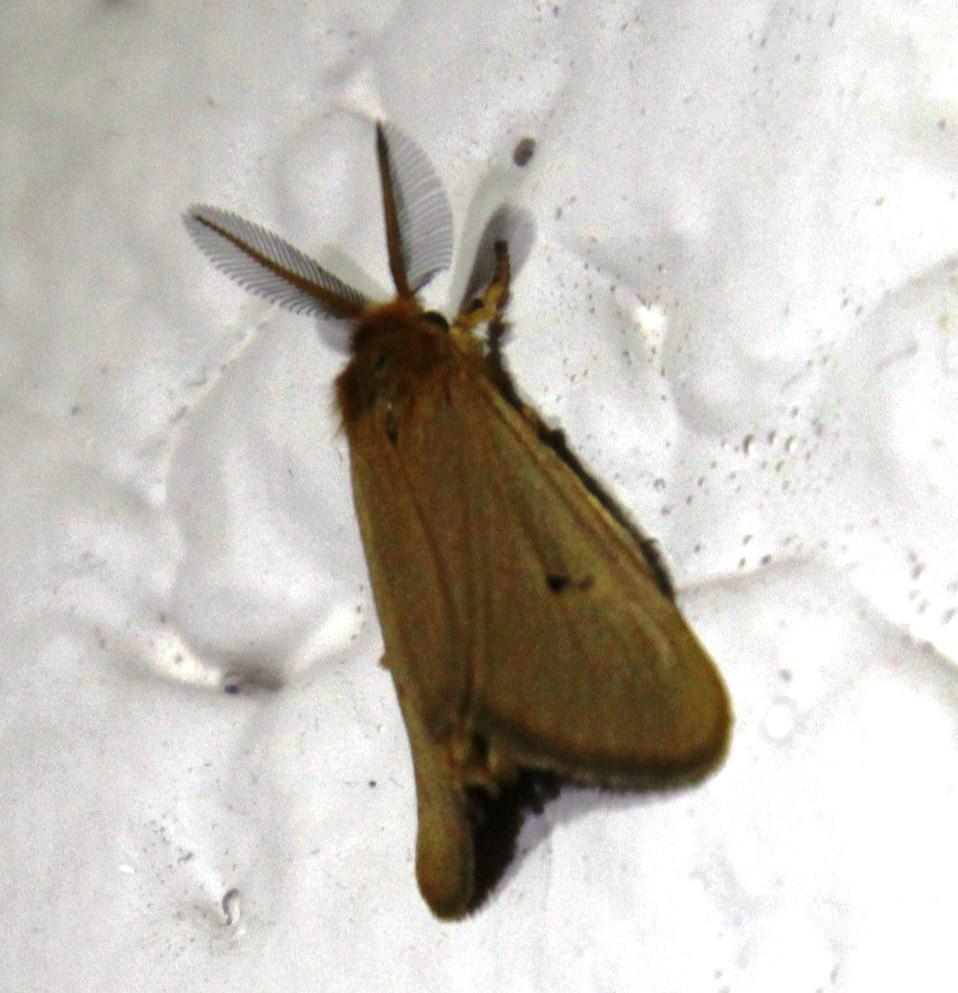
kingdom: Animalia
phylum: Arthropoda
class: Insecta
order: Lepidoptera
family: Erebidae
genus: Bracharoa
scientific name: Bracharoa quadripunctata
